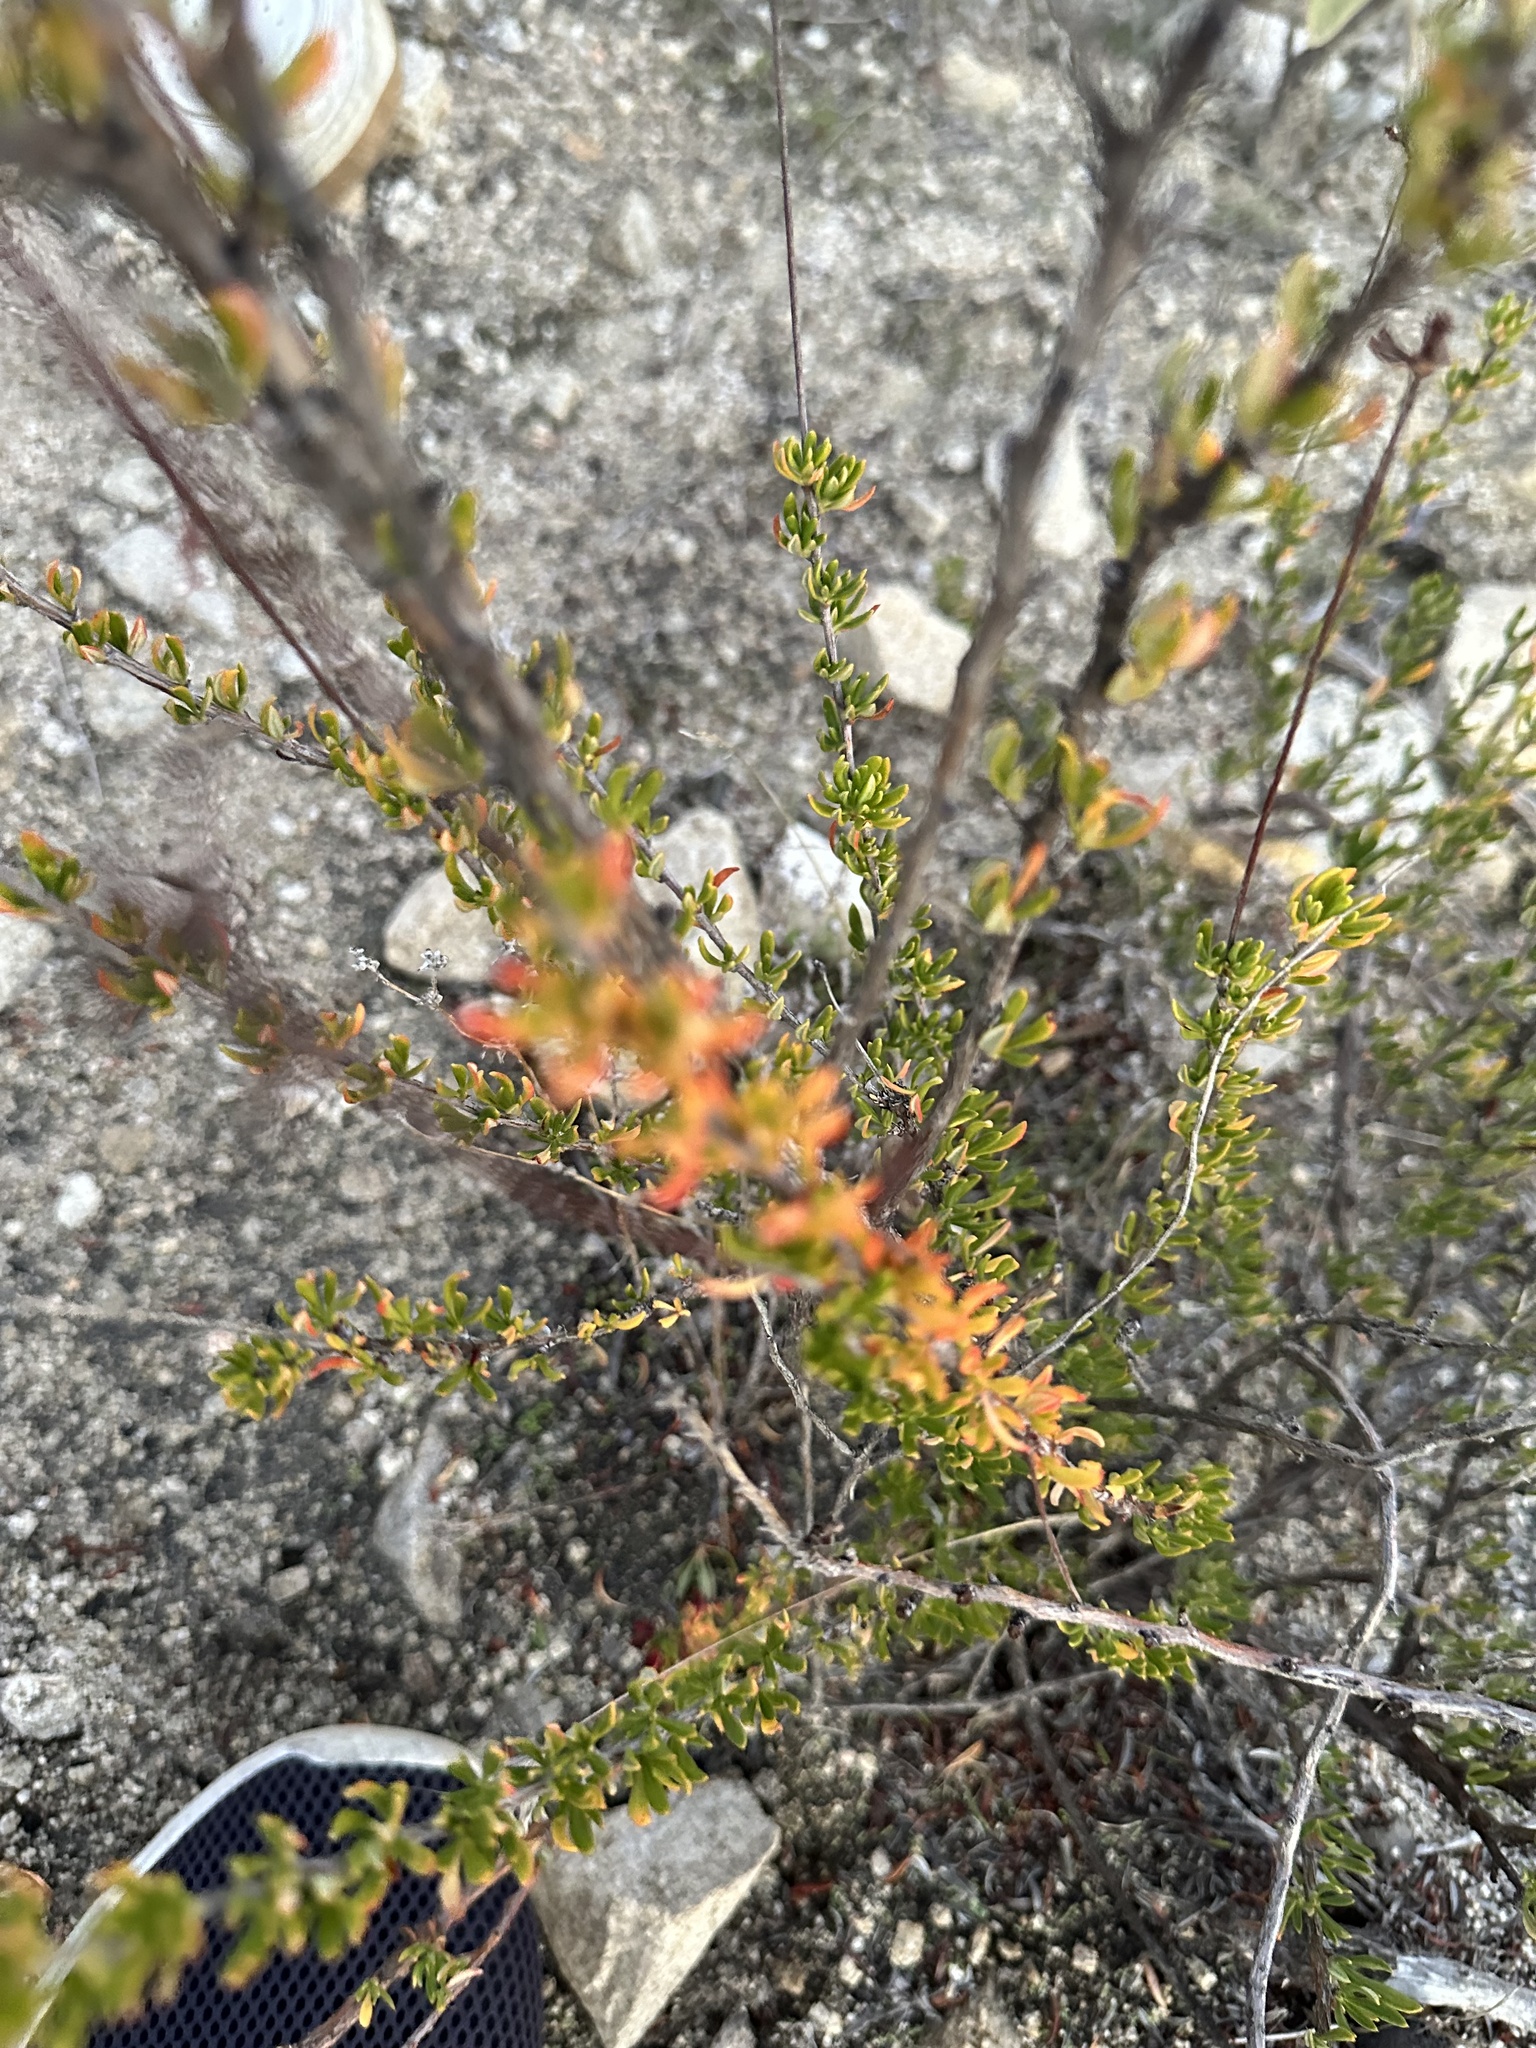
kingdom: Plantae
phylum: Tracheophyta
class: Magnoliopsida
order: Caryophyllales
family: Polygonaceae
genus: Eriogonum
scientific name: Eriogonum fasciculatum
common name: California wild buckwheat
